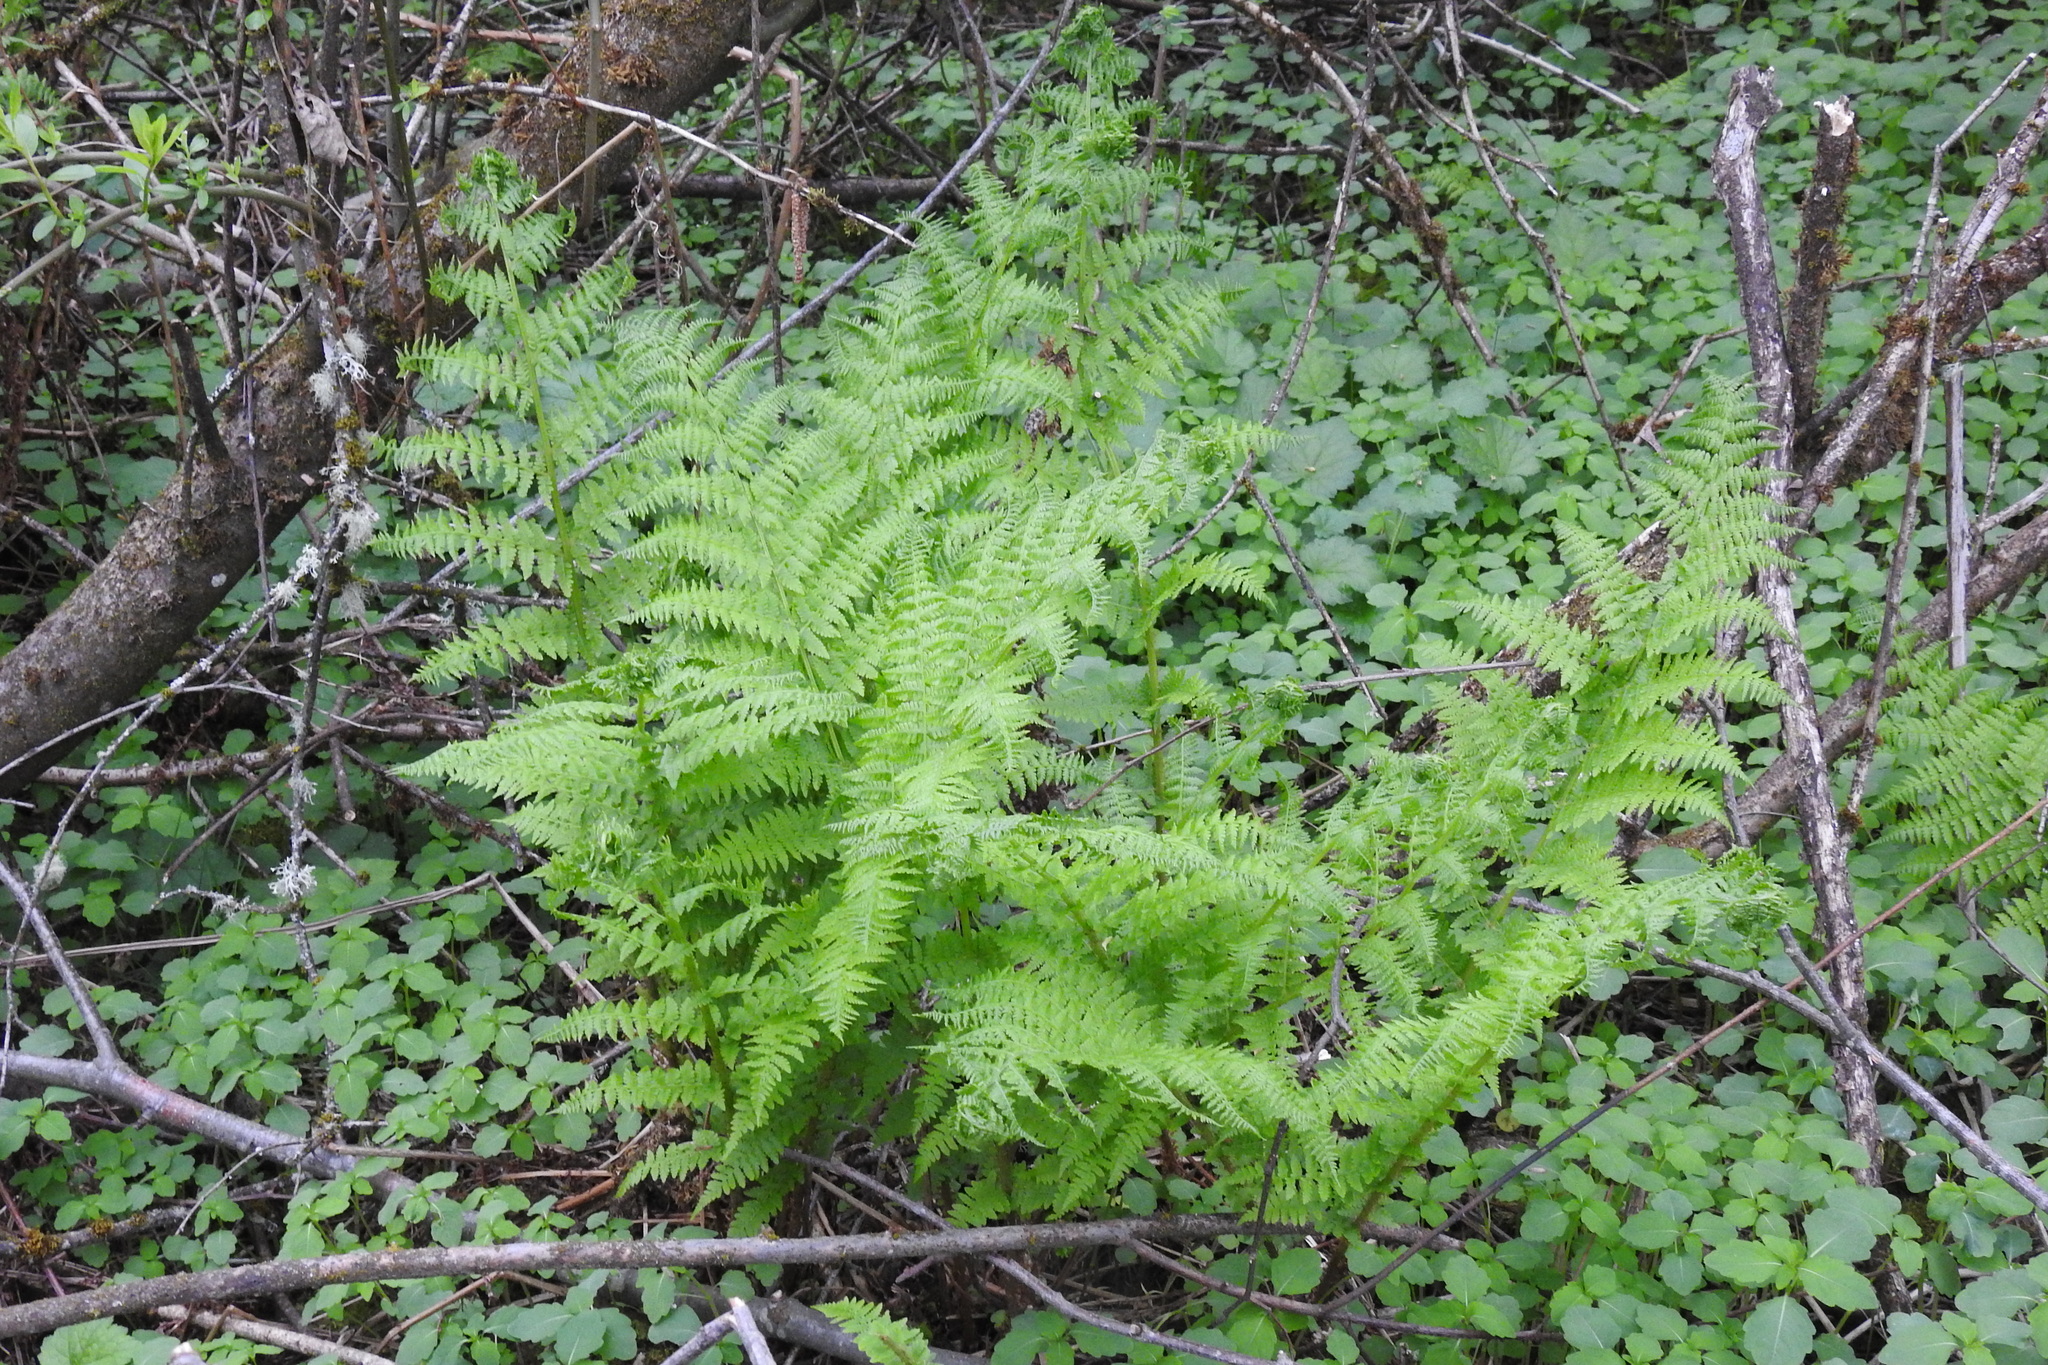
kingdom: Plantae
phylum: Tracheophyta
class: Polypodiopsida
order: Polypodiales
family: Athyriaceae
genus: Athyrium
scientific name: Athyrium filix-femina
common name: Lady fern
